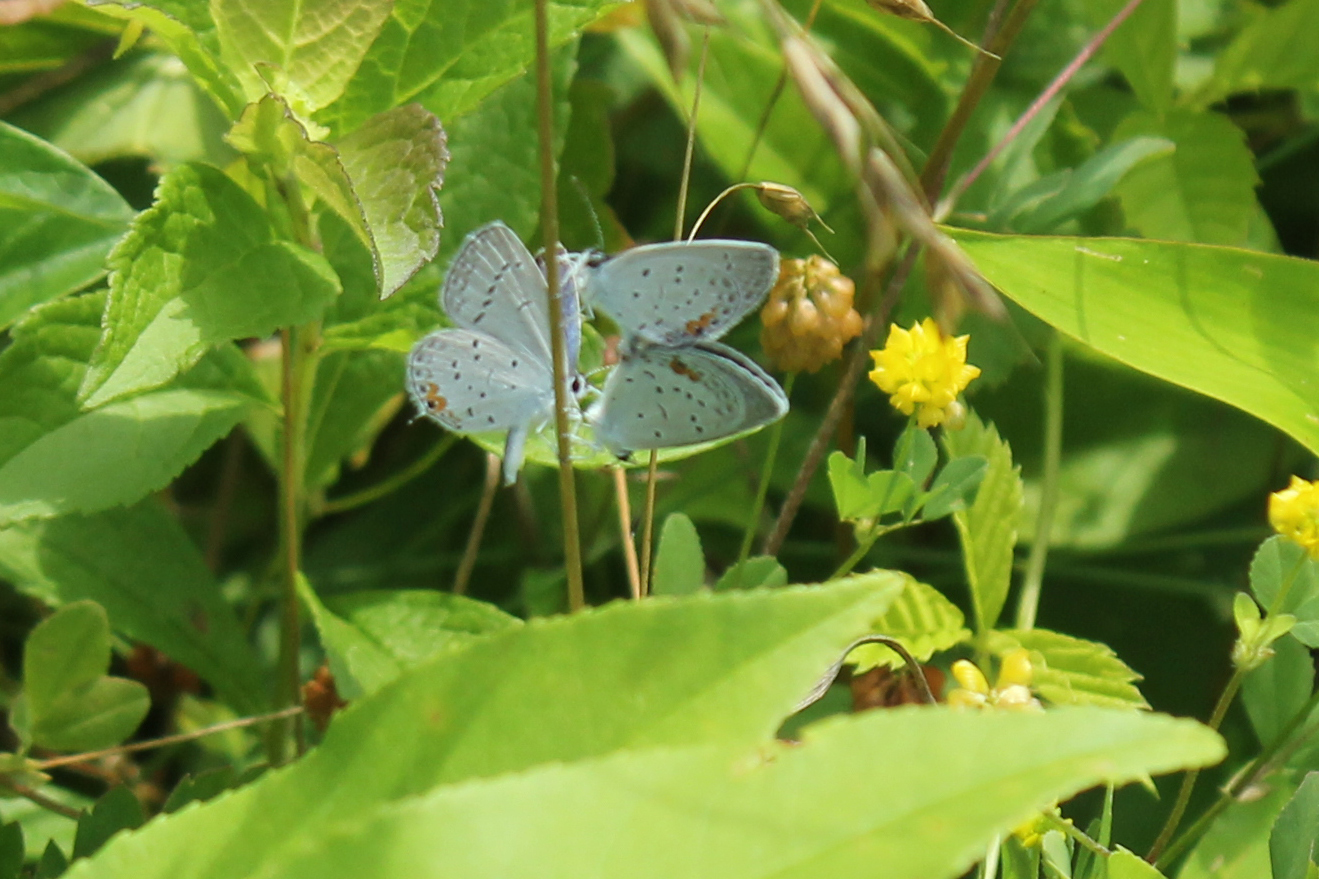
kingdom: Animalia
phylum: Arthropoda
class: Insecta
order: Lepidoptera
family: Lycaenidae
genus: Elkalyce
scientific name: Elkalyce comyntas
